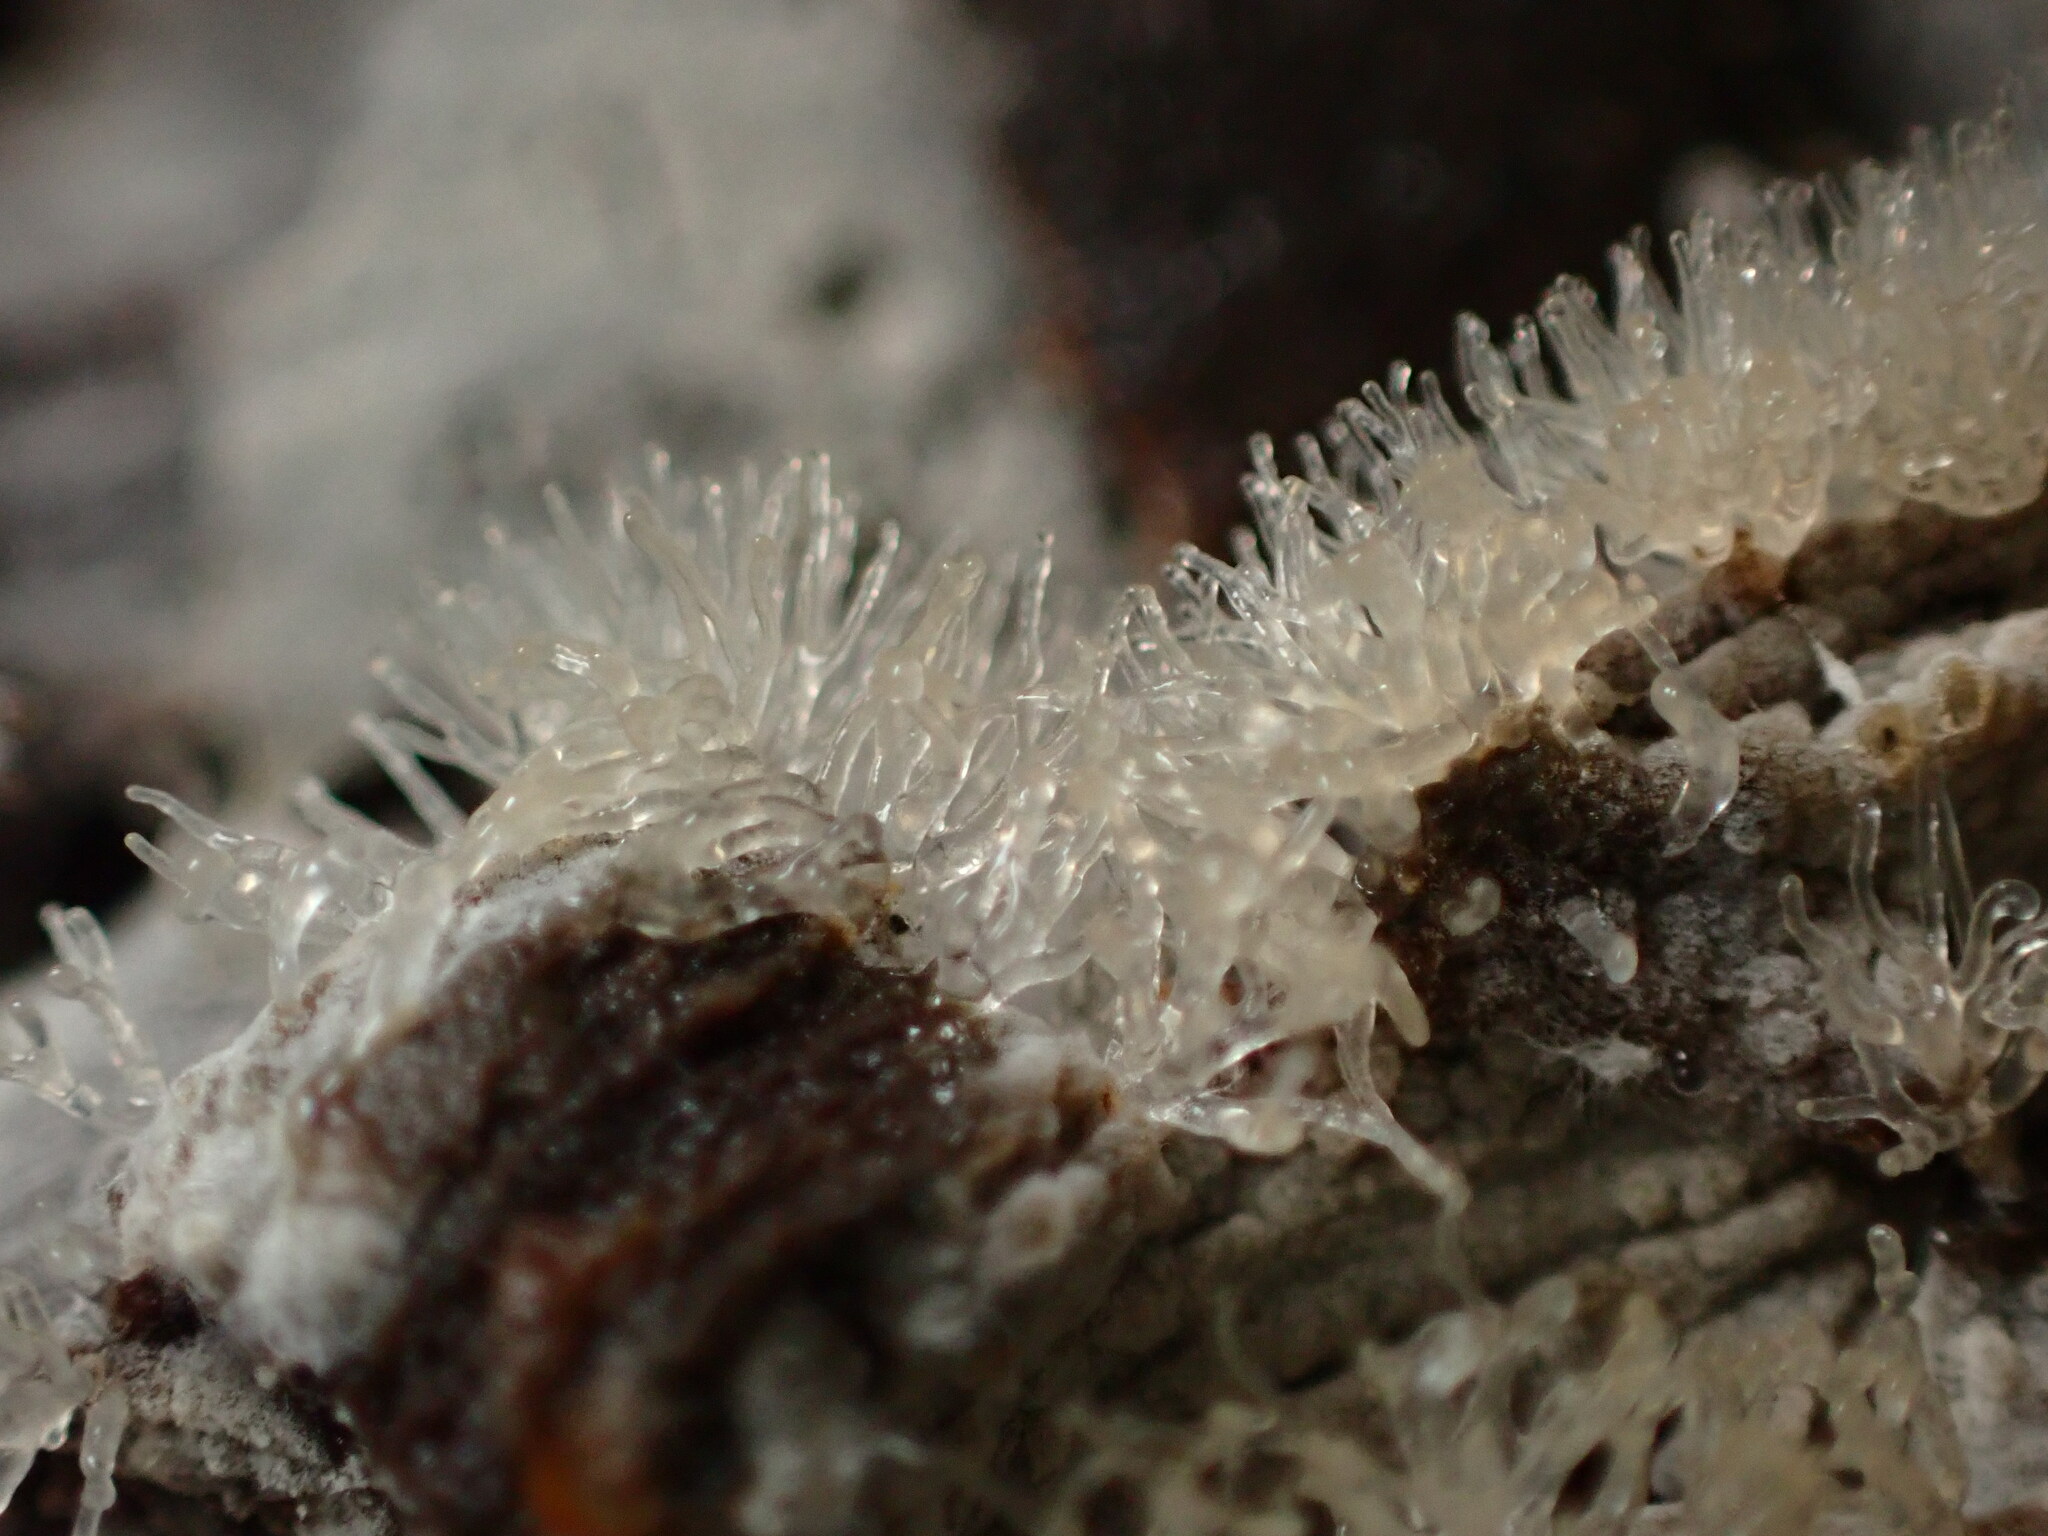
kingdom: Protozoa
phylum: Mycetozoa
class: Protosteliomycetes
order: Ceratiomyxales
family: Ceratiomyxaceae
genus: Ceratiomyxa
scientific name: Ceratiomyxa fruticulosa
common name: Honeycomb coral slime mold
